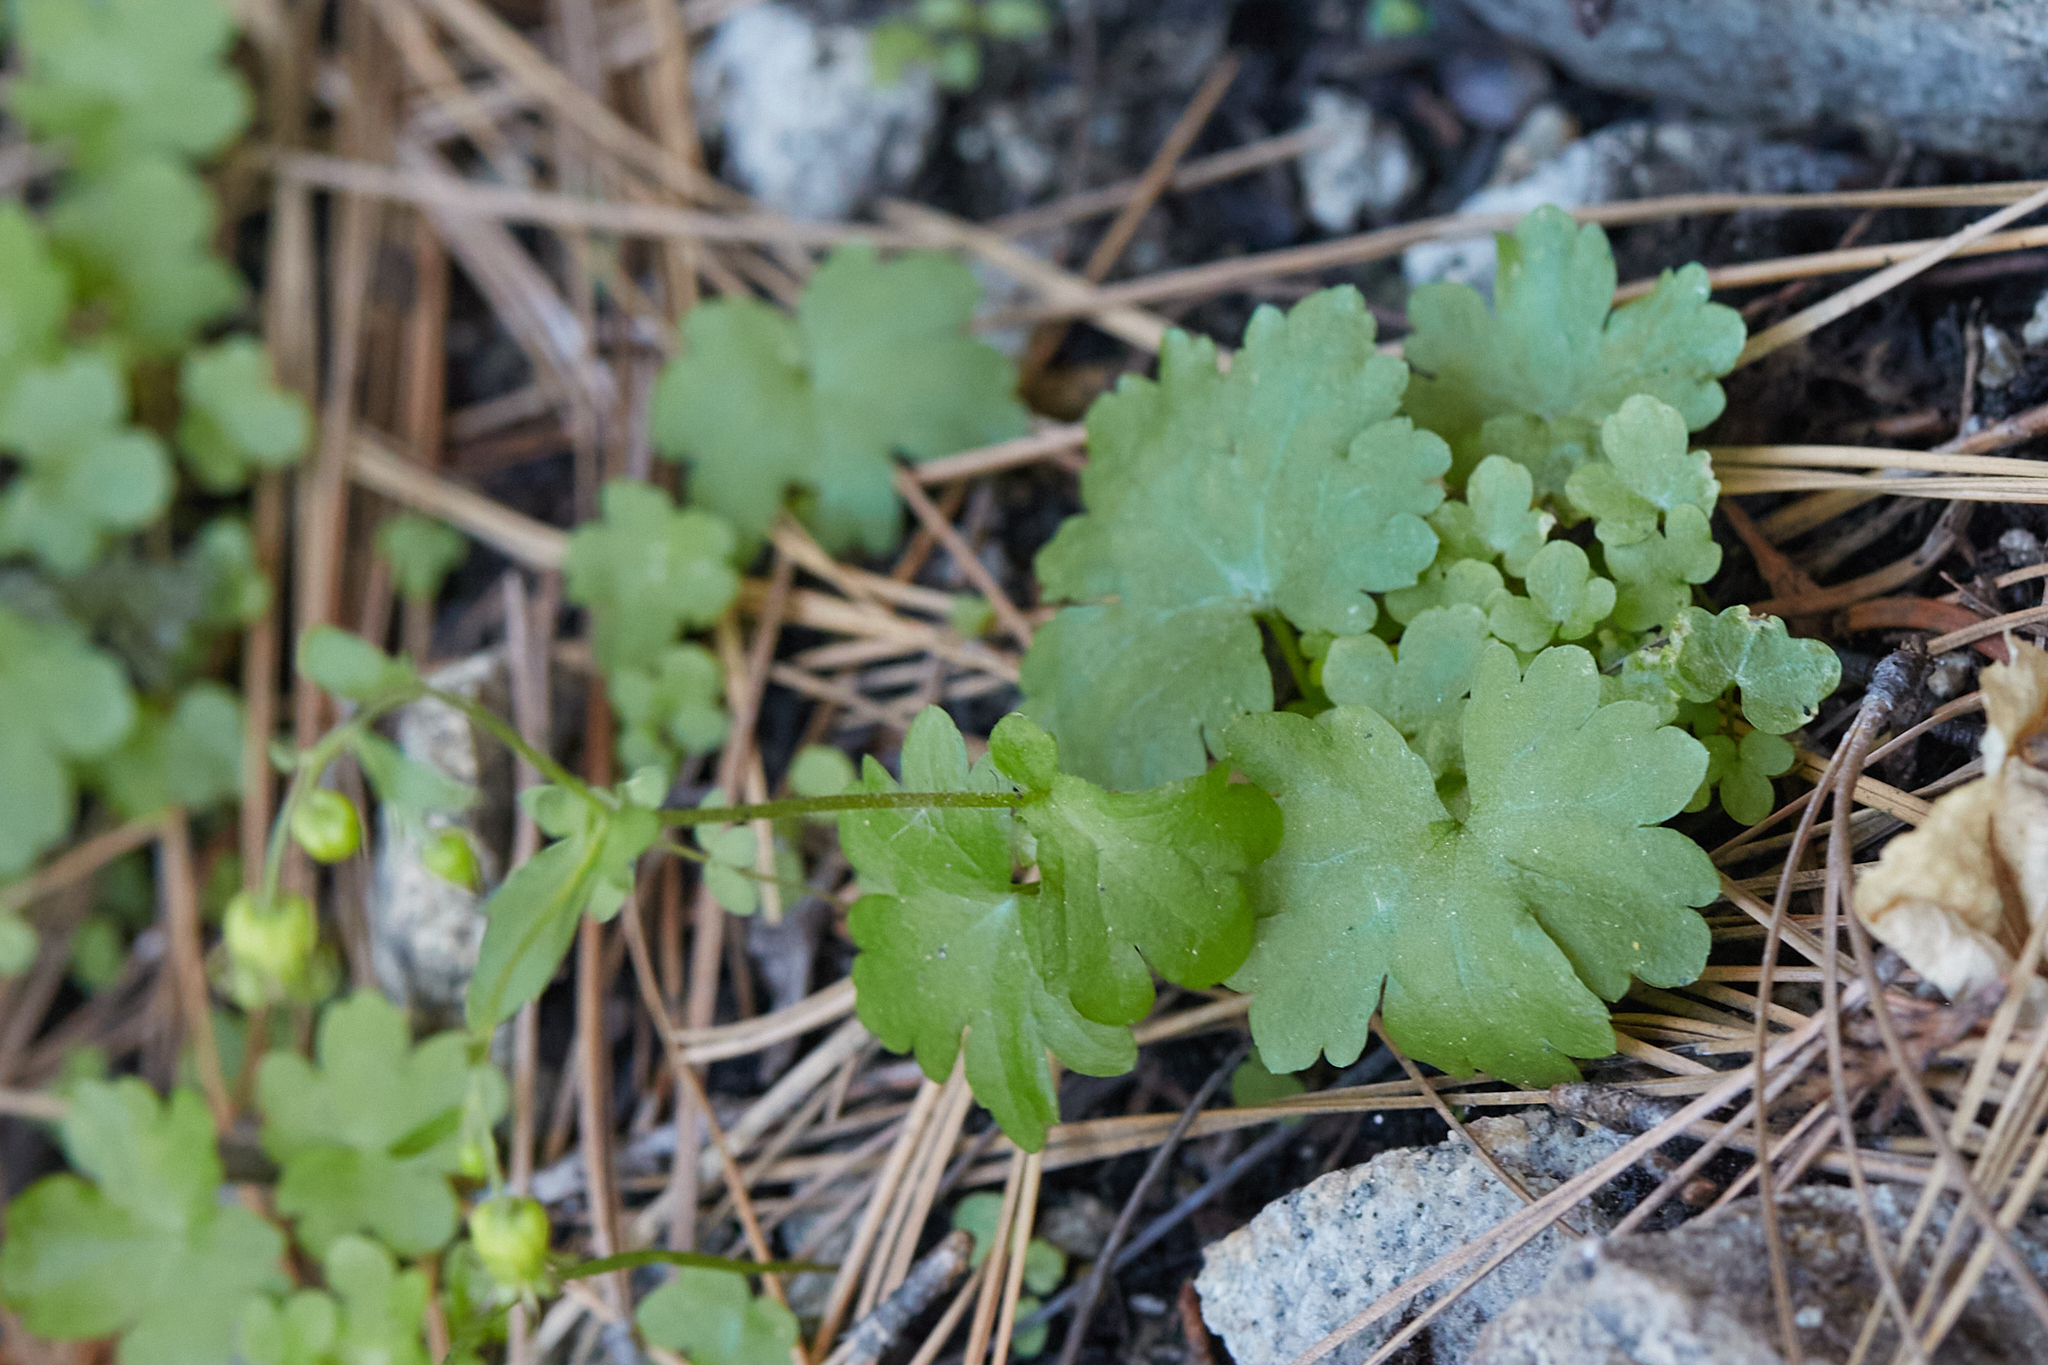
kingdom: Plantae
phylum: Tracheophyta
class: Magnoliopsida
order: Saxifragales
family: Saxifragaceae
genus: Bolandra
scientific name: Bolandra californica
